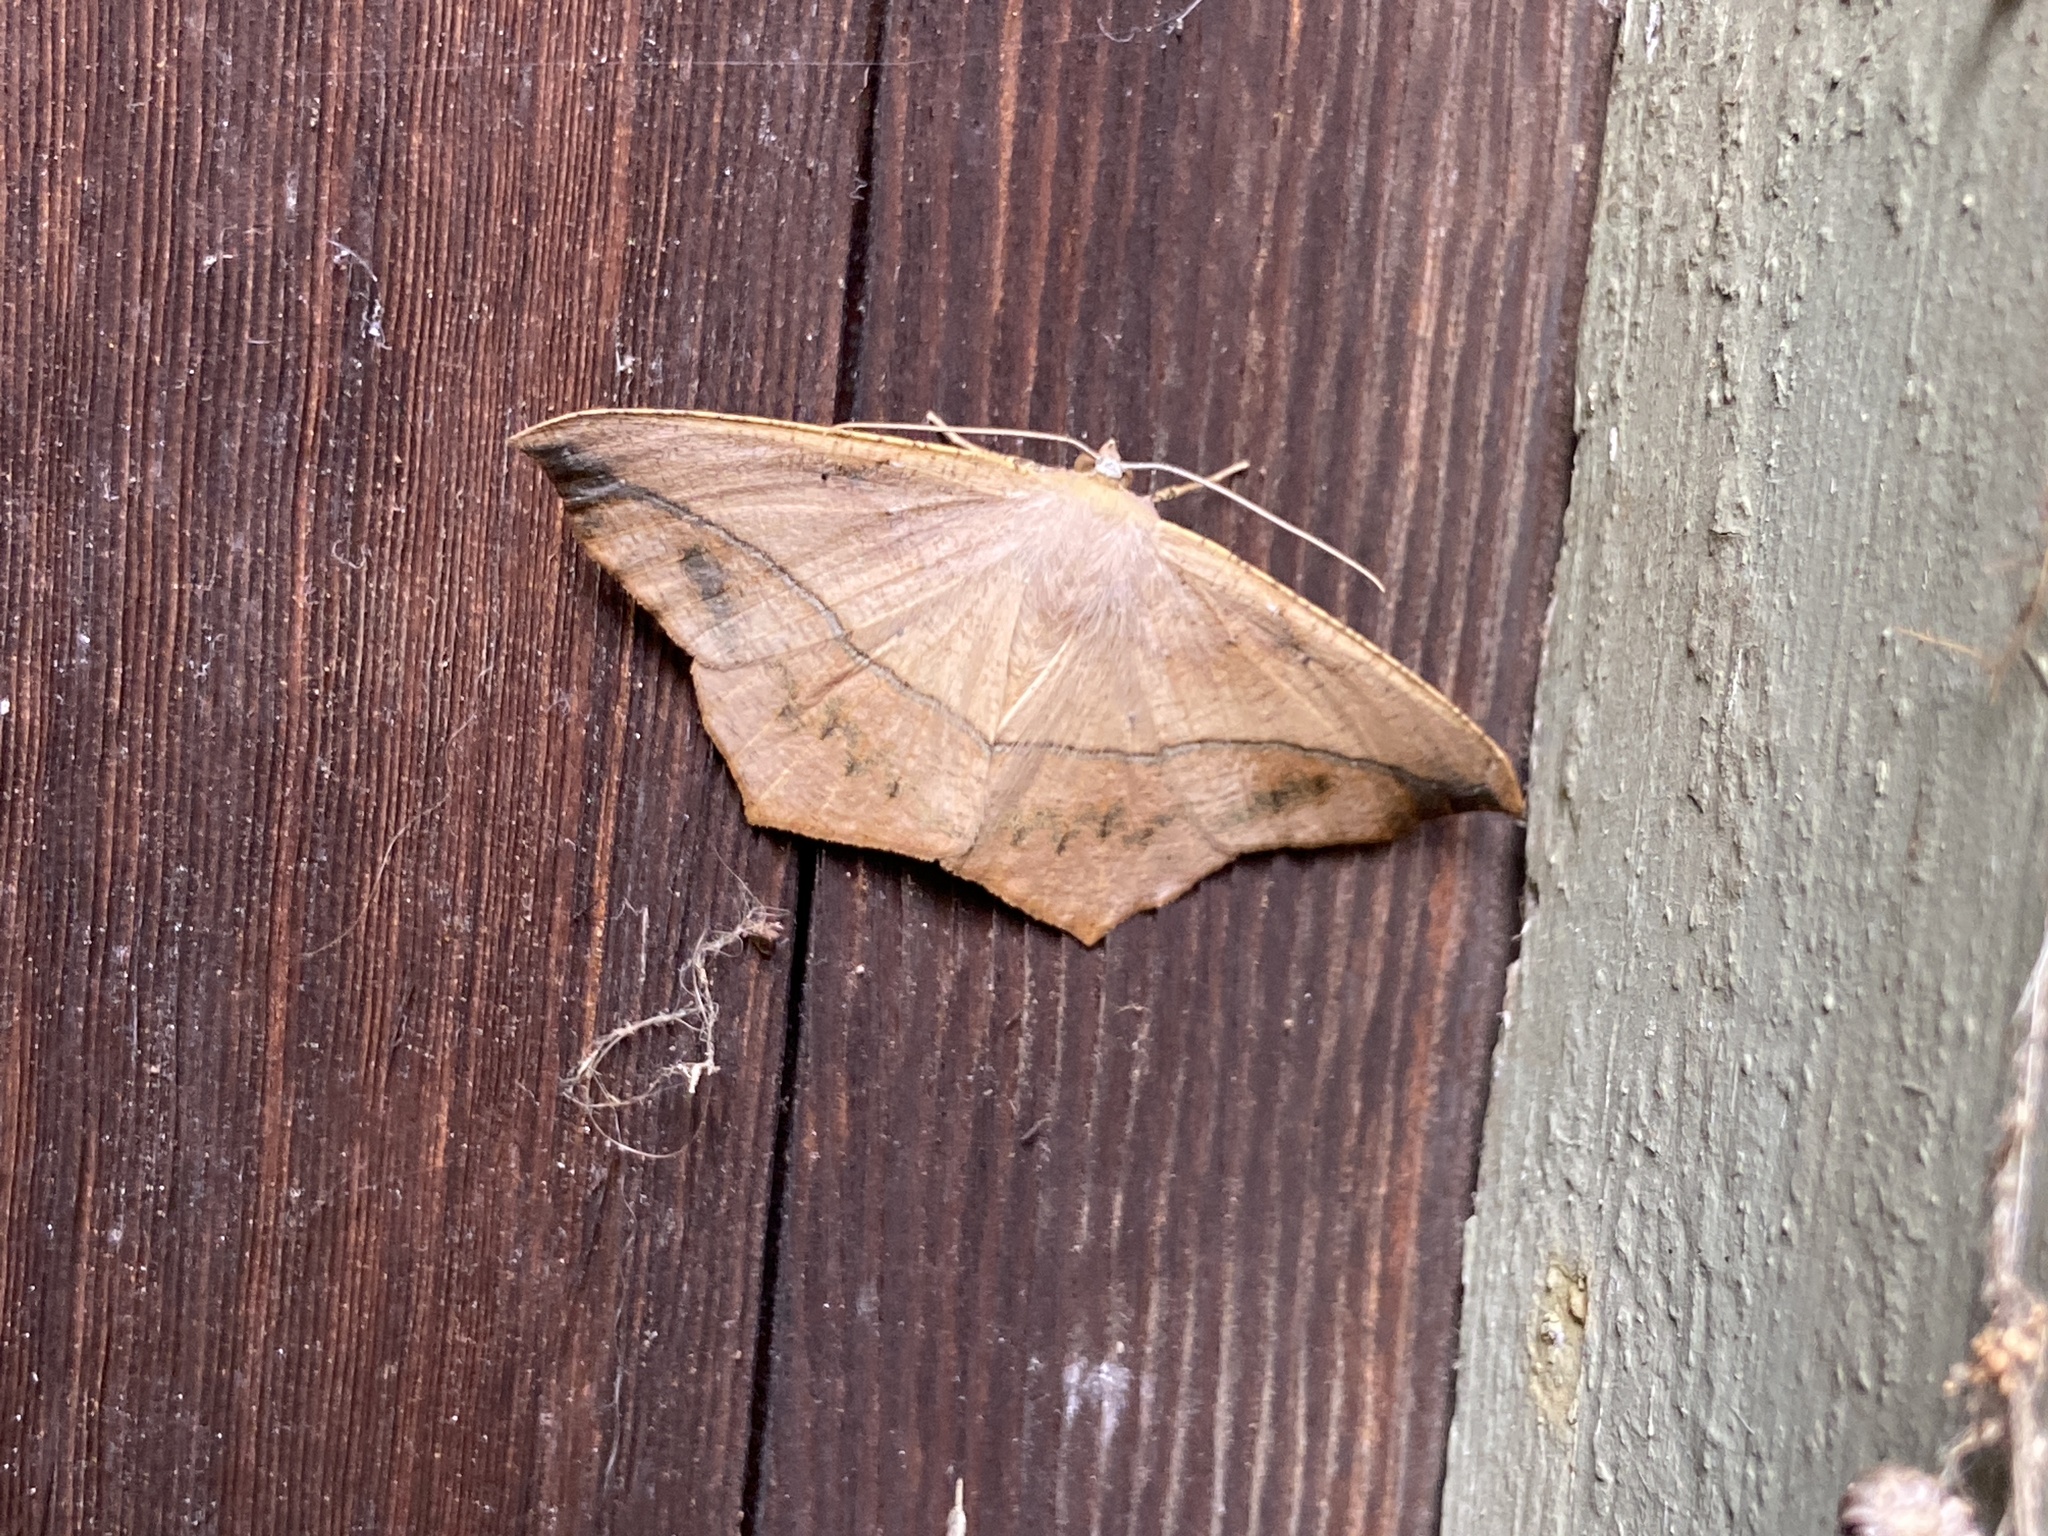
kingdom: Animalia
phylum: Arthropoda
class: Insecta
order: Lepidoptera
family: Geometridae
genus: Prochoerodes
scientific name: Prochoerodes lineola
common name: Large maple spanworm
